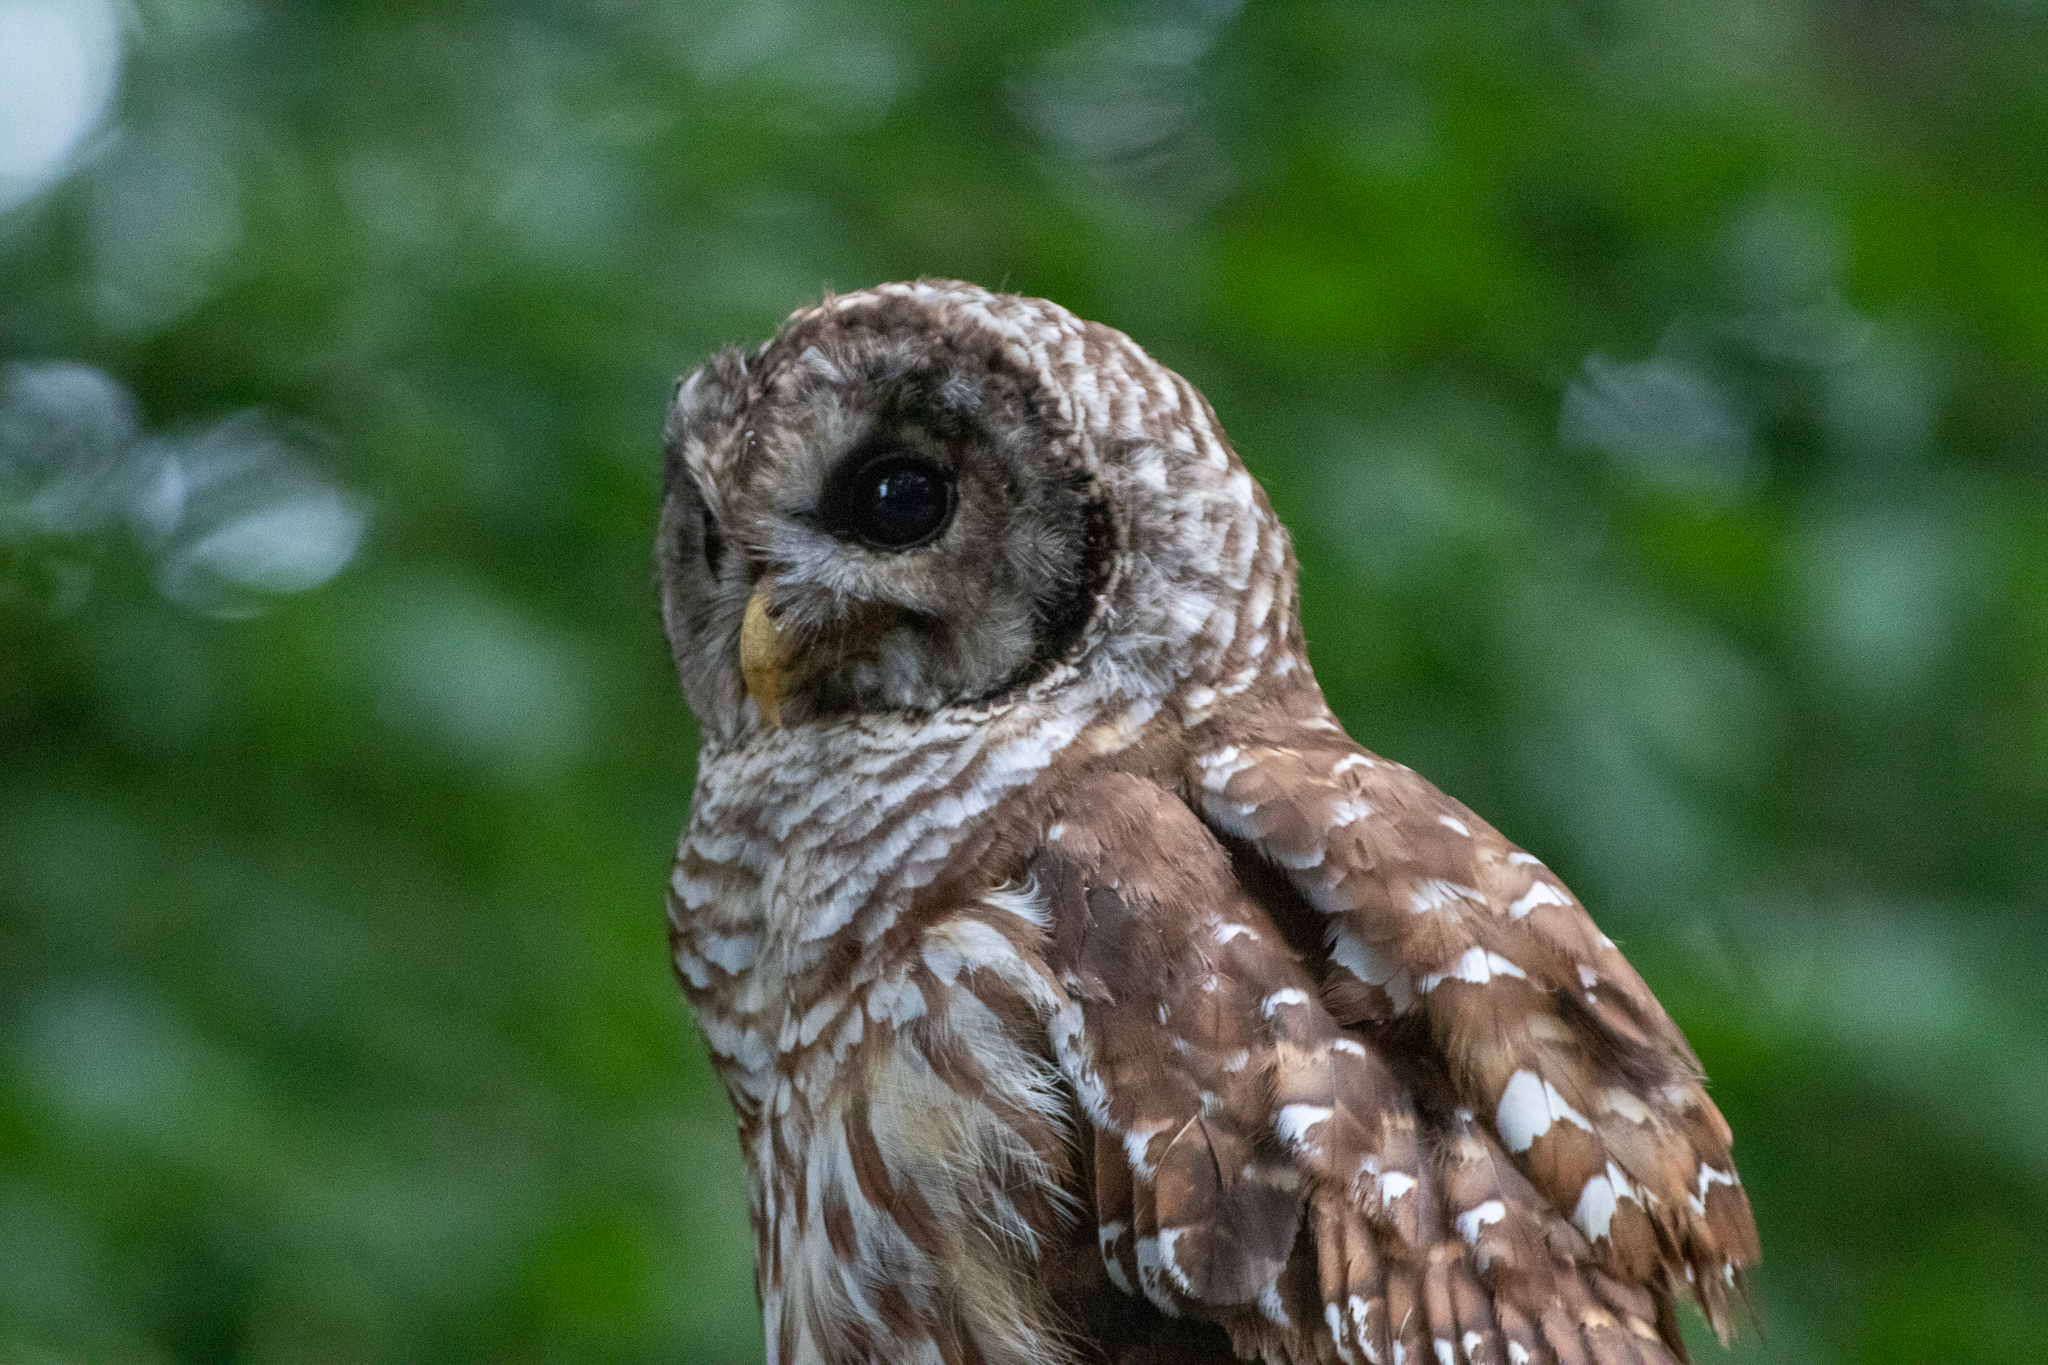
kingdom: Animalia
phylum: Chordata
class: Aves
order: Strigiformes
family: Strigidae
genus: Strix
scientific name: Strix varia
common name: Barred owl
